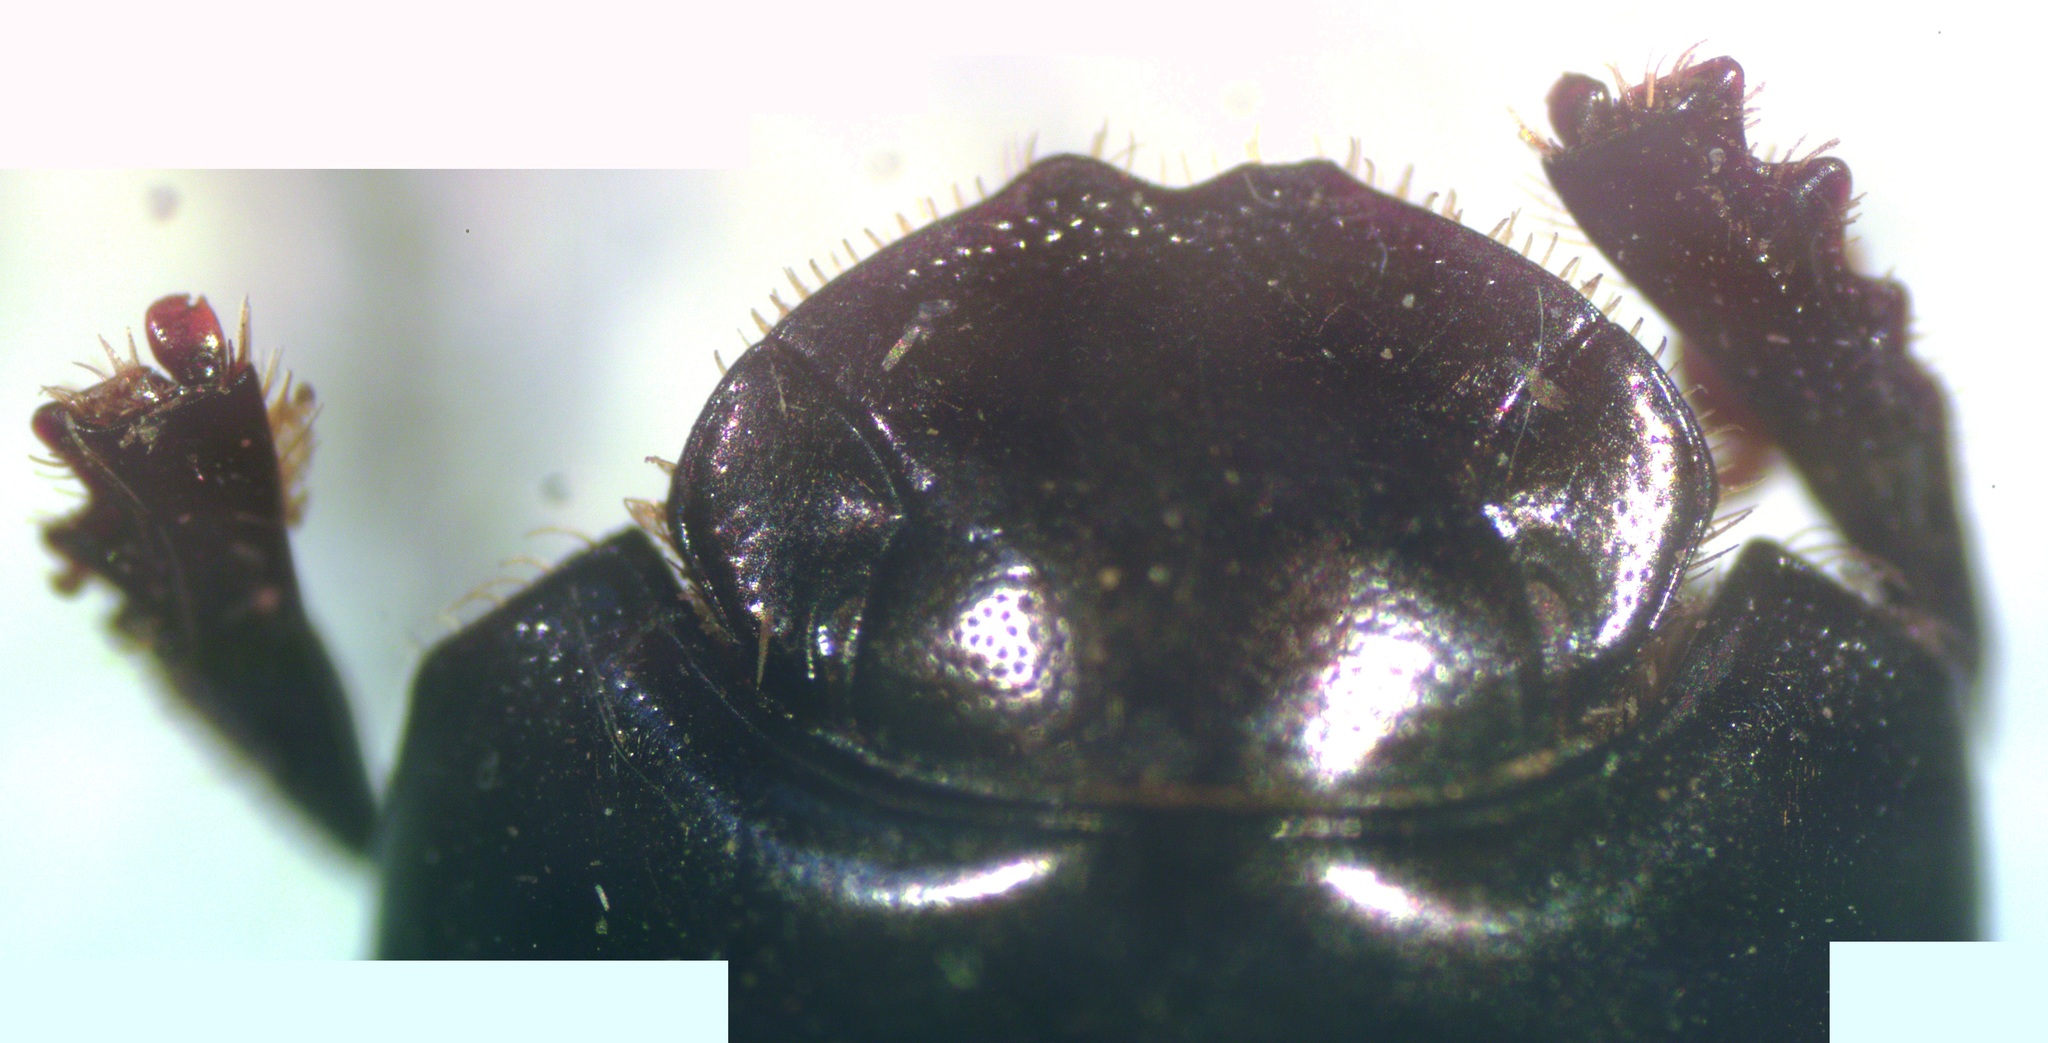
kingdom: Animalia
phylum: Arthropoda
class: Insecta
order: Coleoptera
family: Scarabaeidae
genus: Ateuchus
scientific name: Ateuchus rodriguezi
